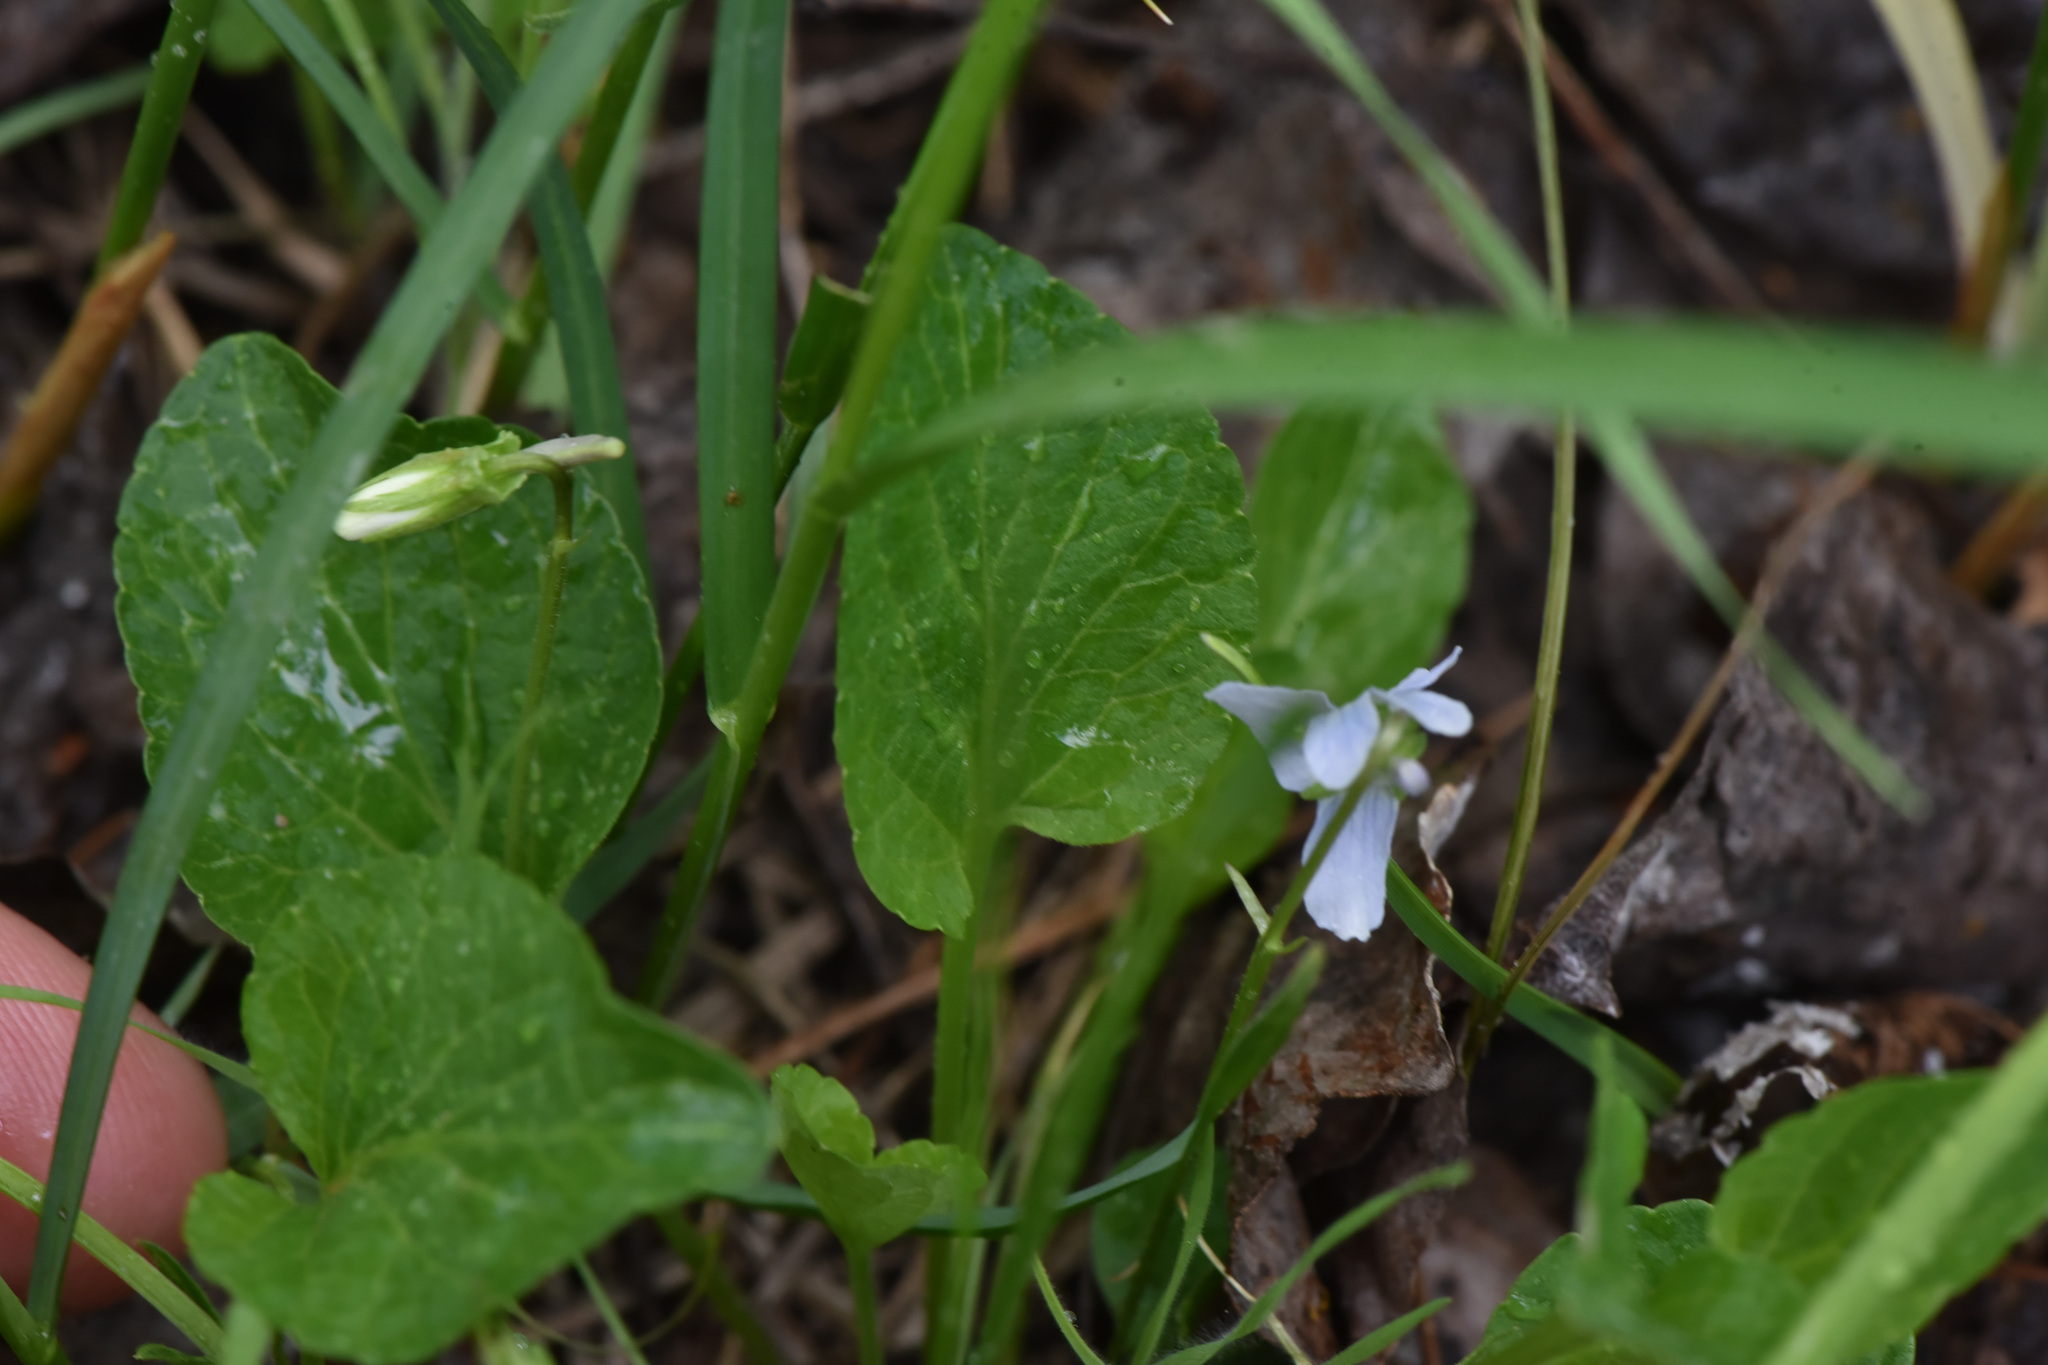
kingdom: Plantae
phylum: Tracheophyta
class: Magnoliopsida
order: Malpighiales
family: Violaceae
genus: Viola
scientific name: Viola adunca
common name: Sand violet
